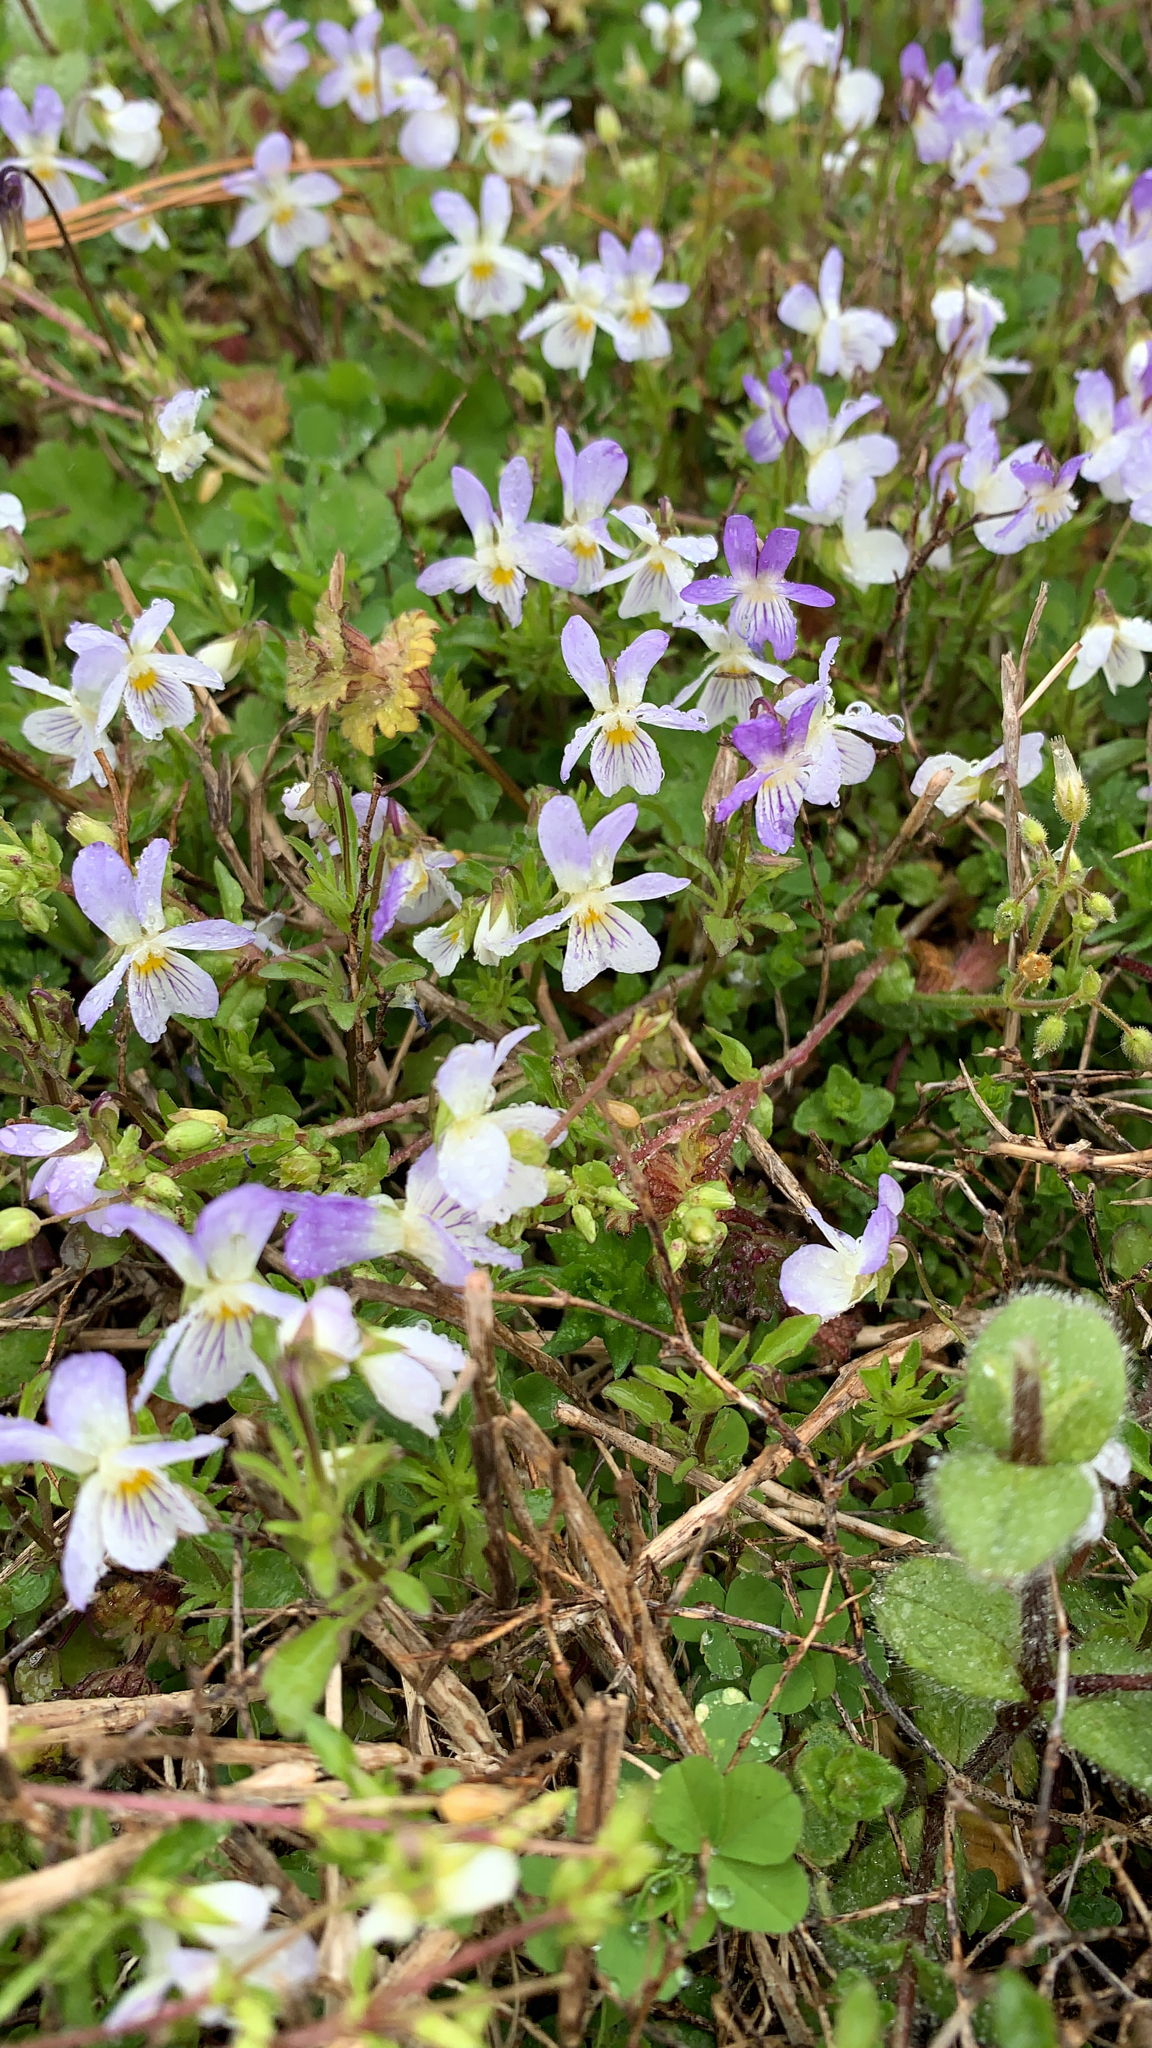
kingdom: Plantae
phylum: Tracheophyta
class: Magnoliopsida
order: Malpighiales
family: Violaceae
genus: Viola
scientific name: Viola rafinesquei
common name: American field pansy
